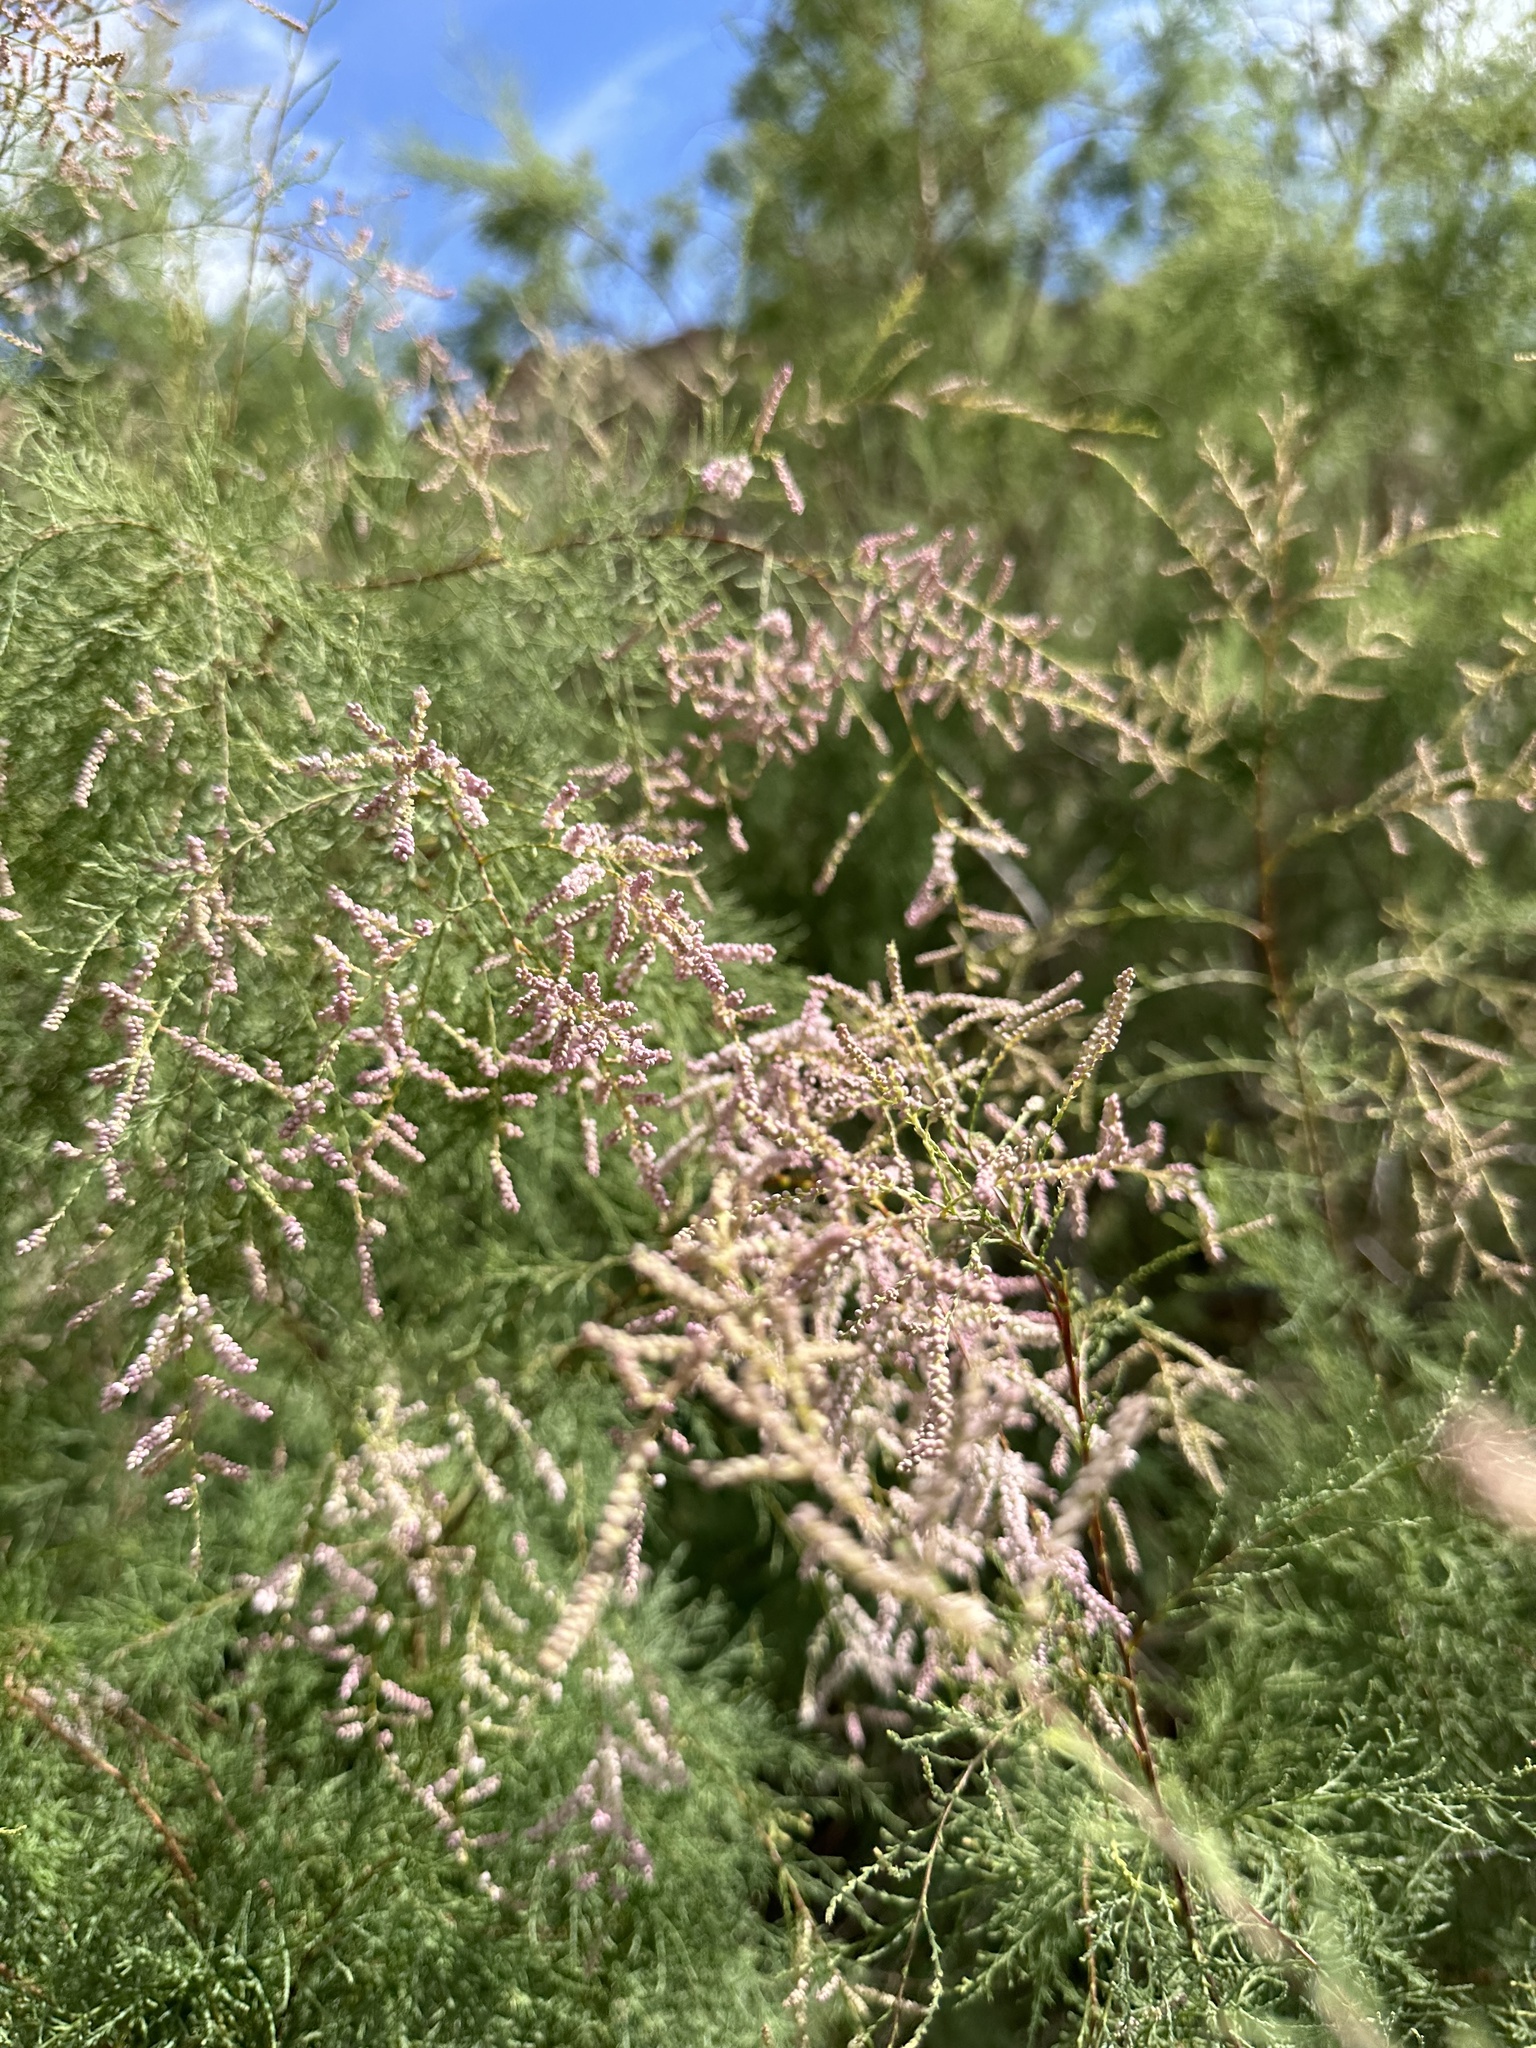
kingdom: Plantae
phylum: Tracheophyta
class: Magnoliopsida
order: Caryophyllales
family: Tamaricaceae
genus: Tamarix
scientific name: Tamarix
